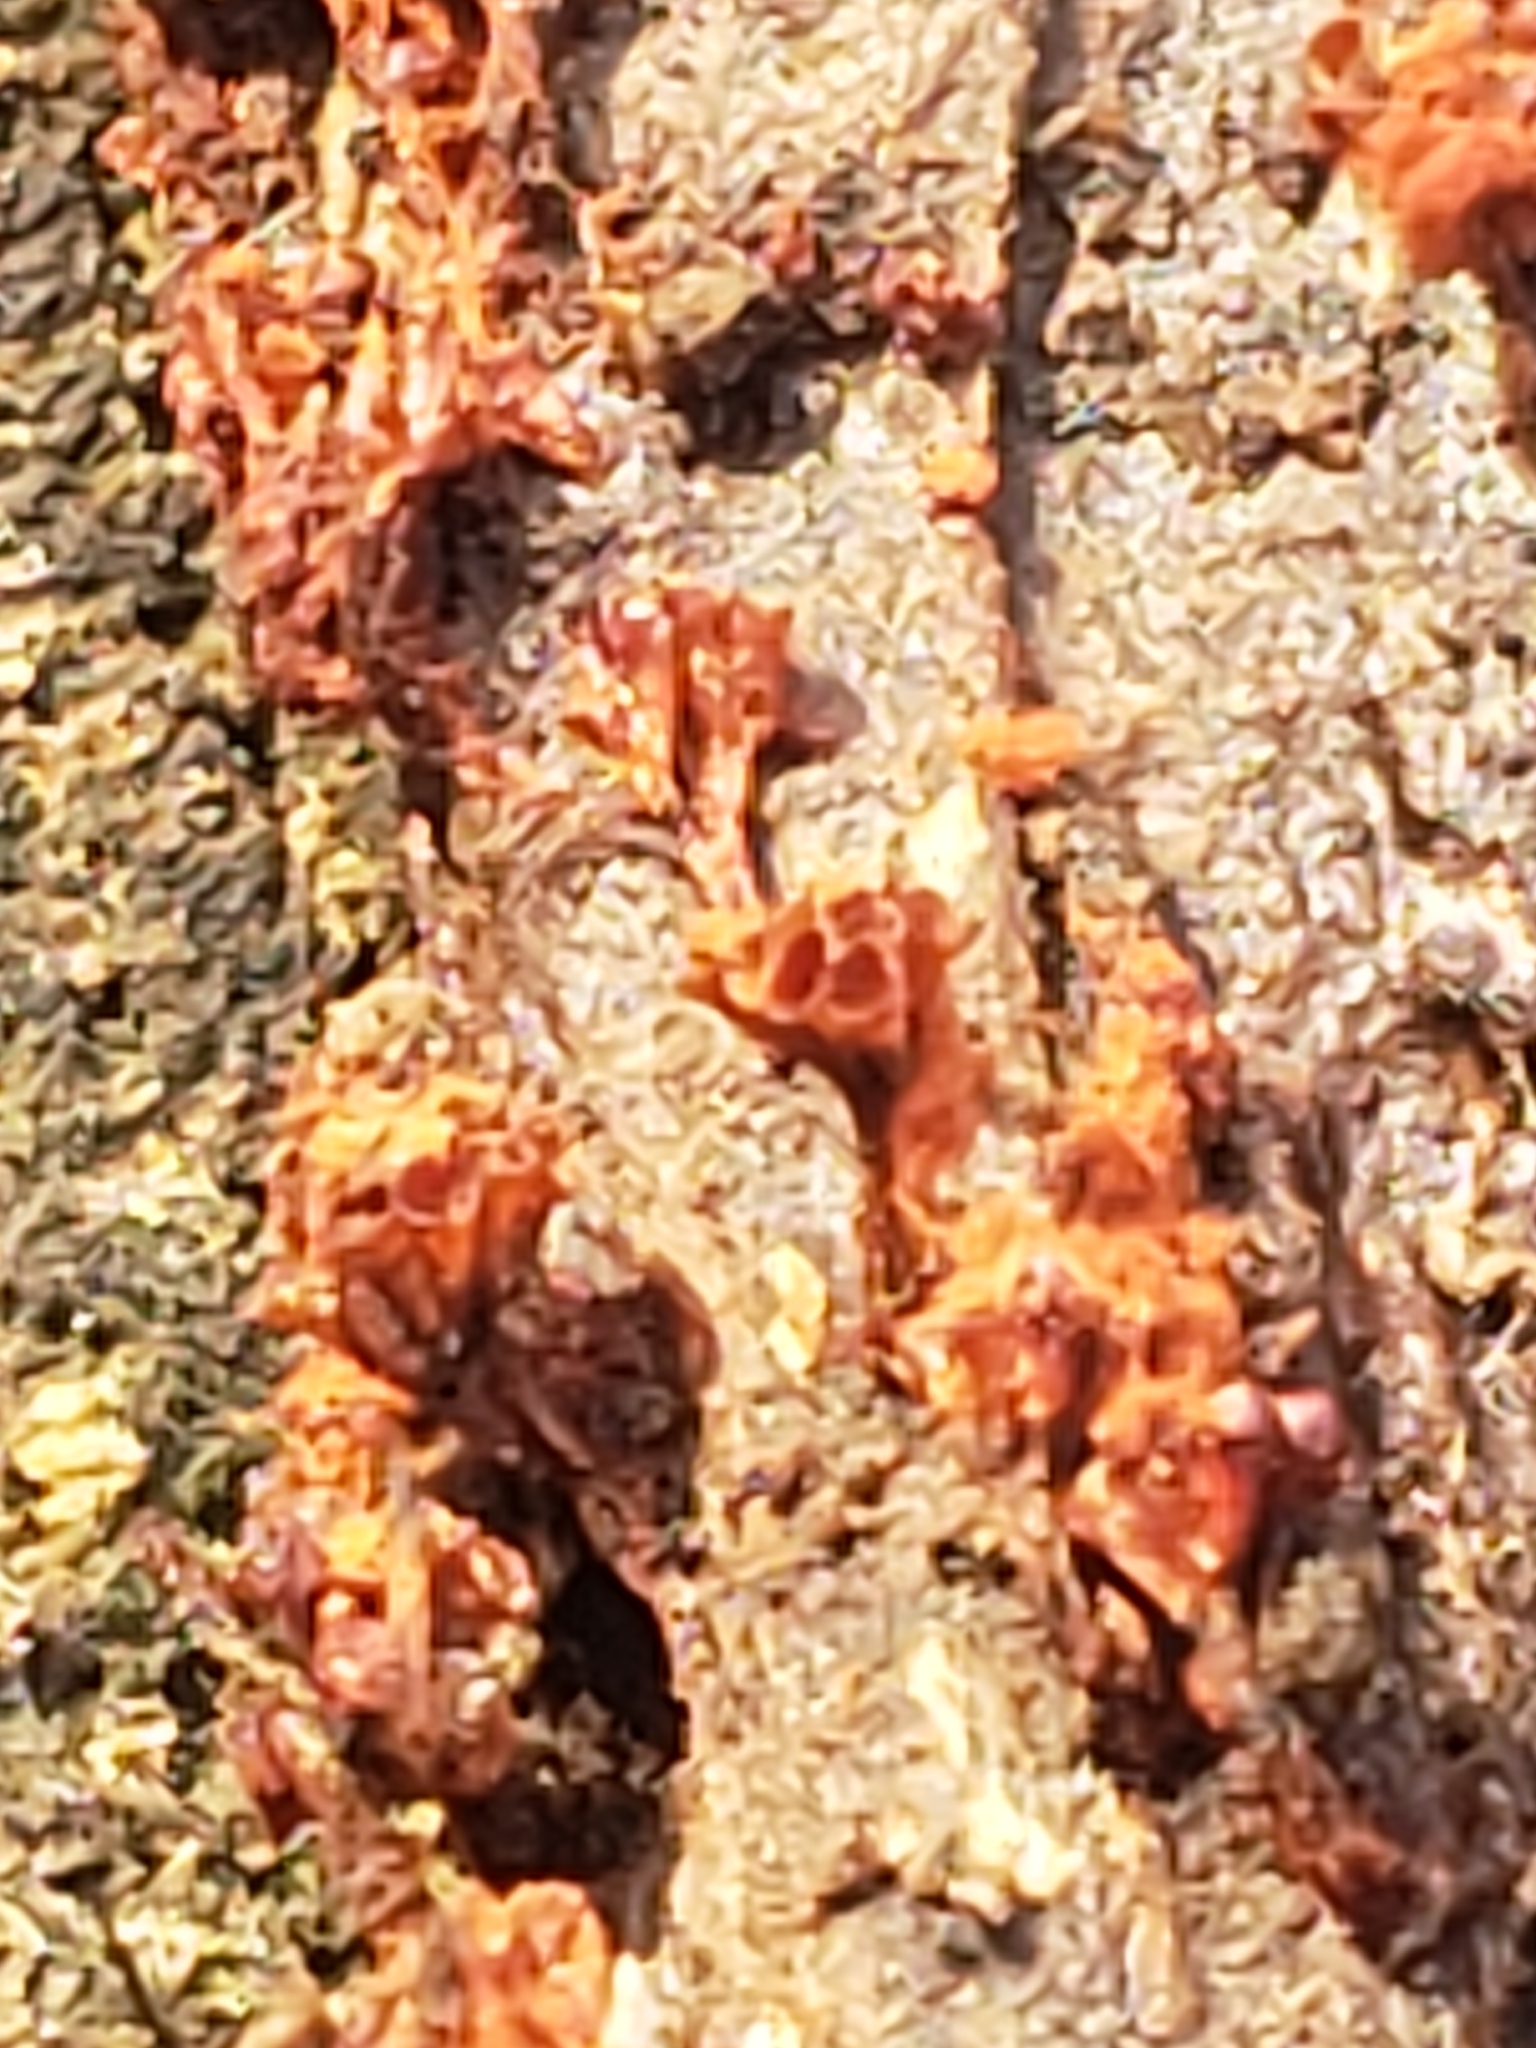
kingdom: Protozoa
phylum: Mycetozoa
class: Myxomycetes
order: Trichiales
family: Trichiaceae
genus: Metatrichia
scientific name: Metatrichia vesparia
